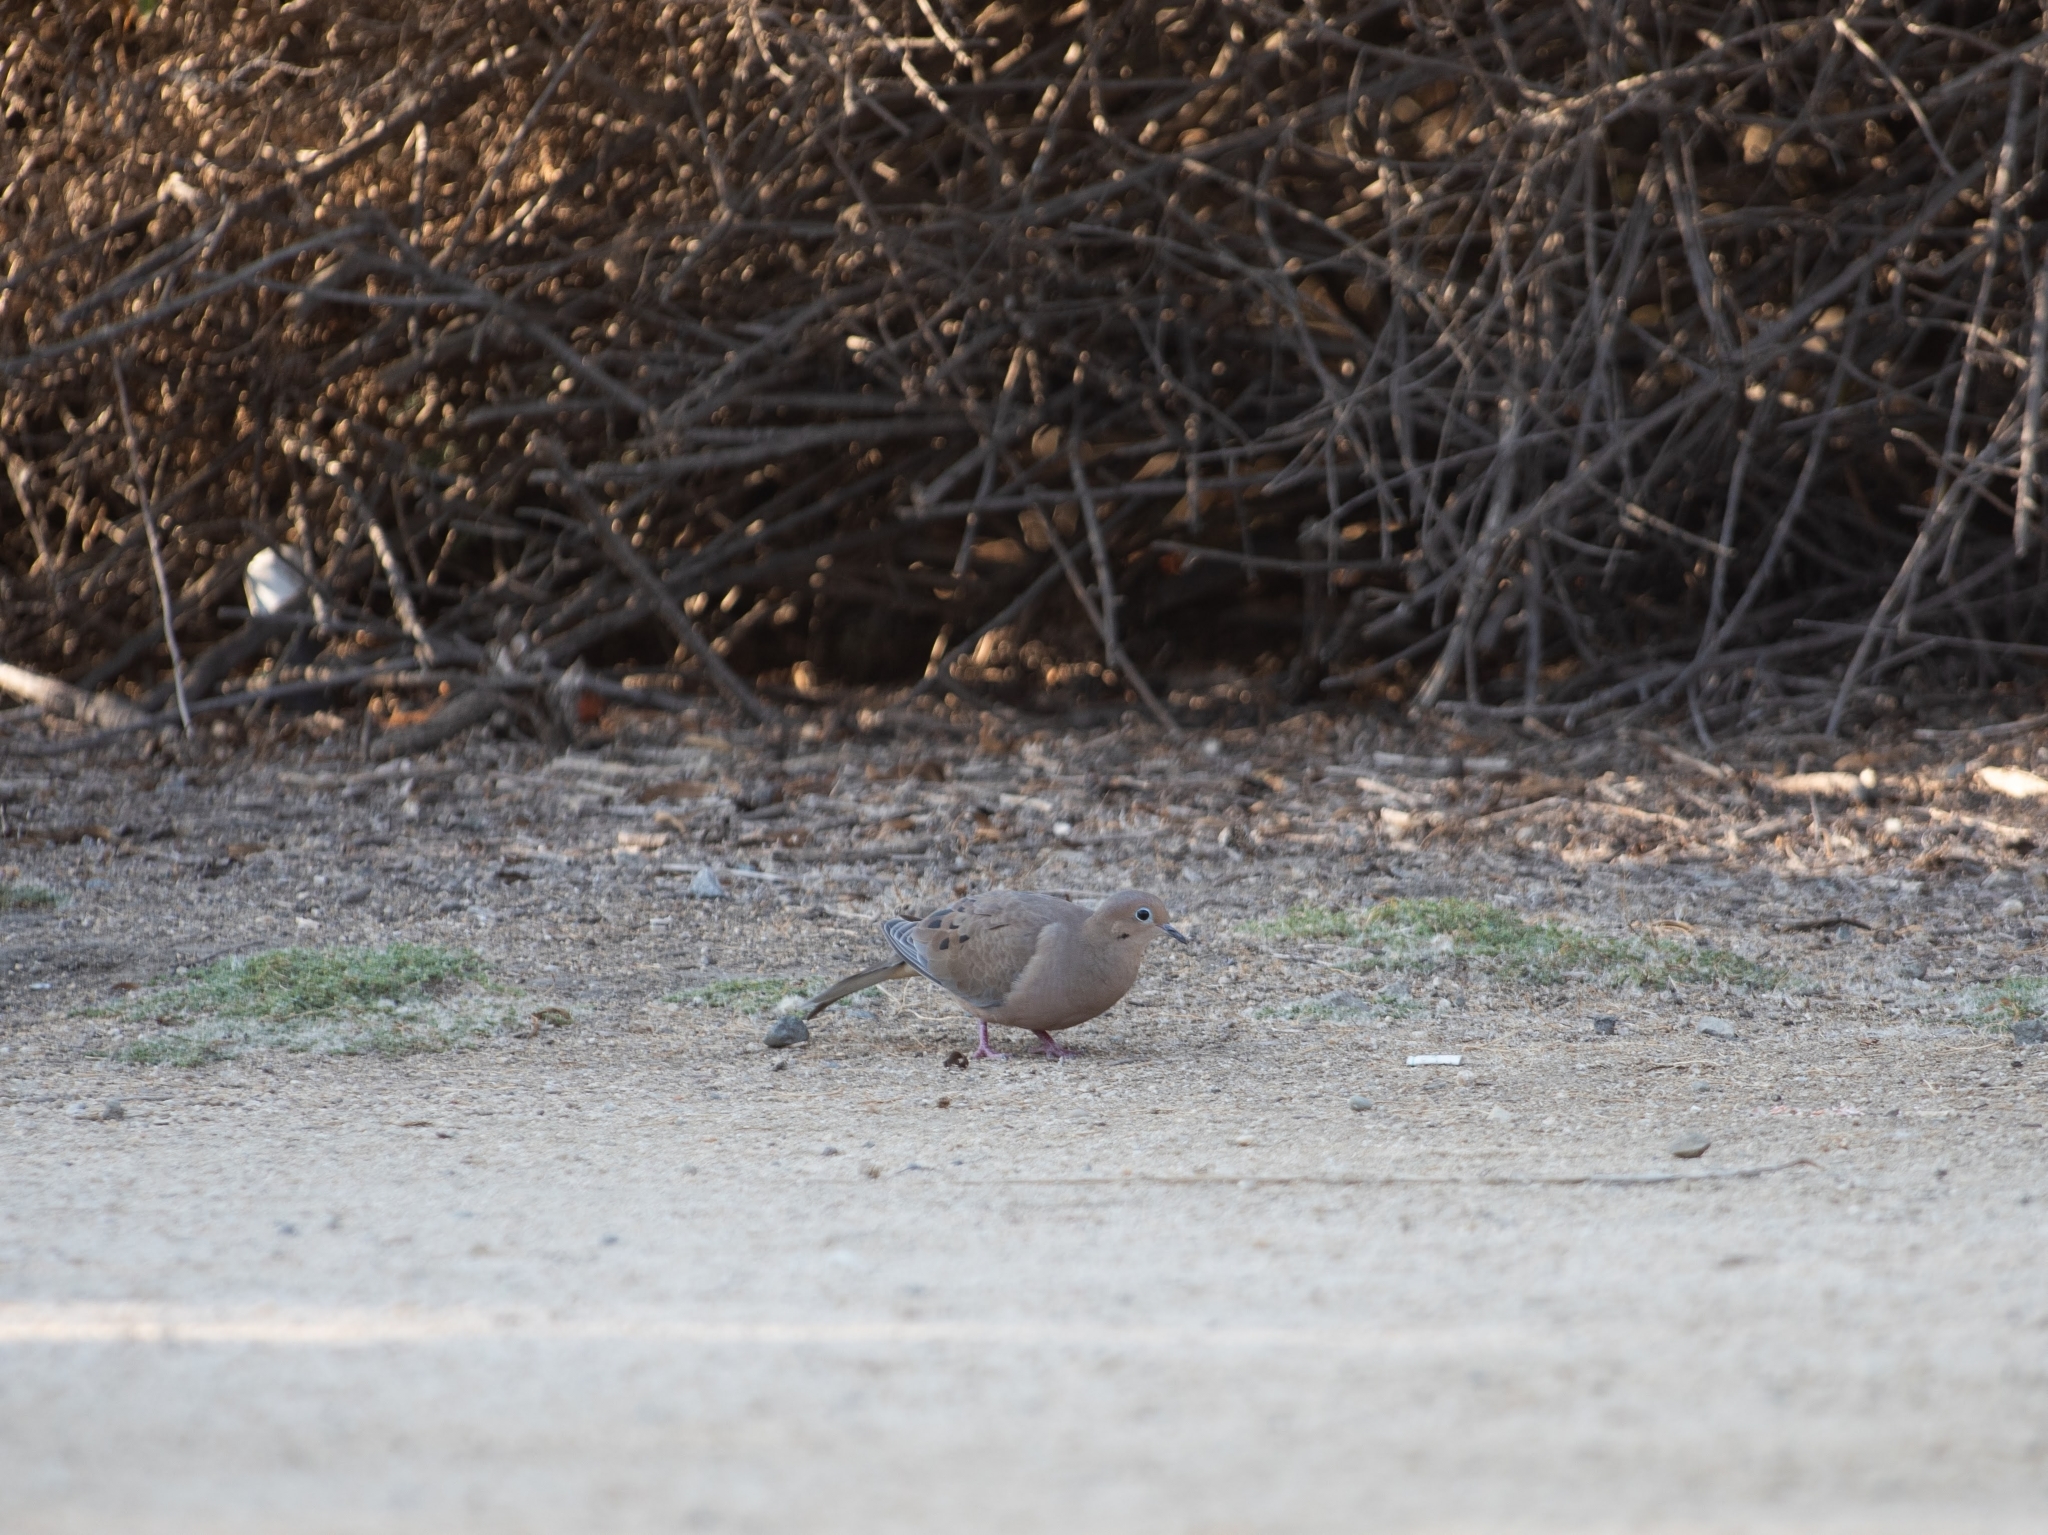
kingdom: Animalia
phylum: Chordata
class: Aves
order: Columbiformes
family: Columbidae
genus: Zenaida
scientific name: Zenaida macroura
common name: Mourning dove
